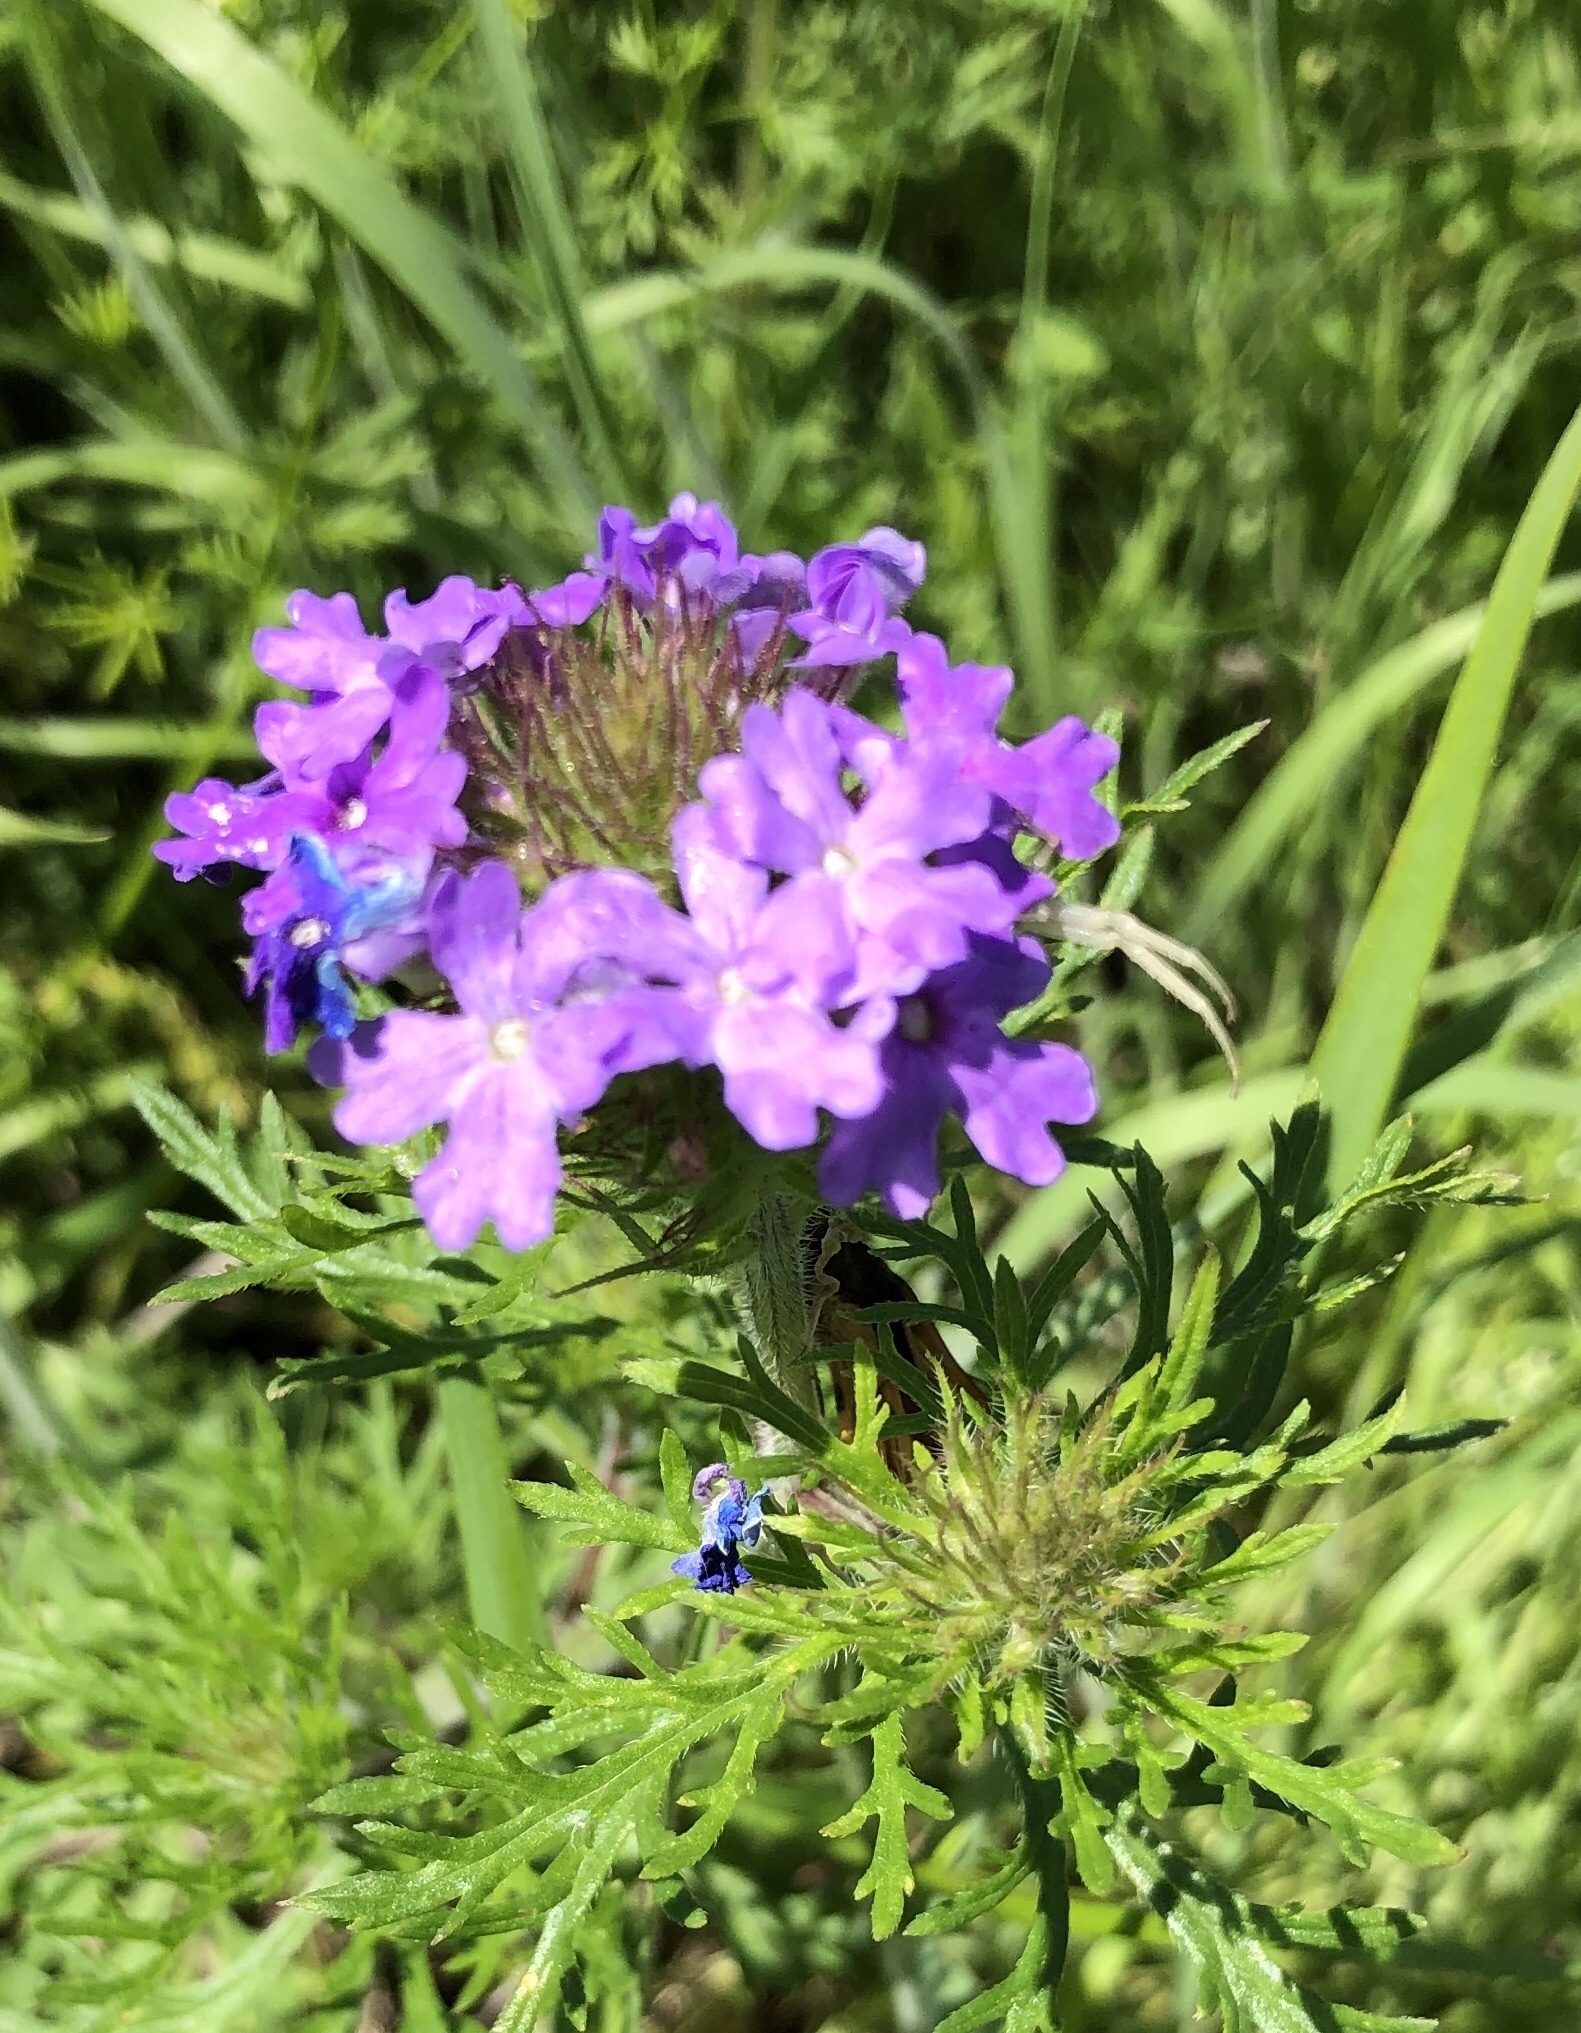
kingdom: Plantae
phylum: Tracheophyta
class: Magnoliopsida
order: Lamiales
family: Verbenaceae
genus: Verbena
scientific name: Verbena bipinnatifida
